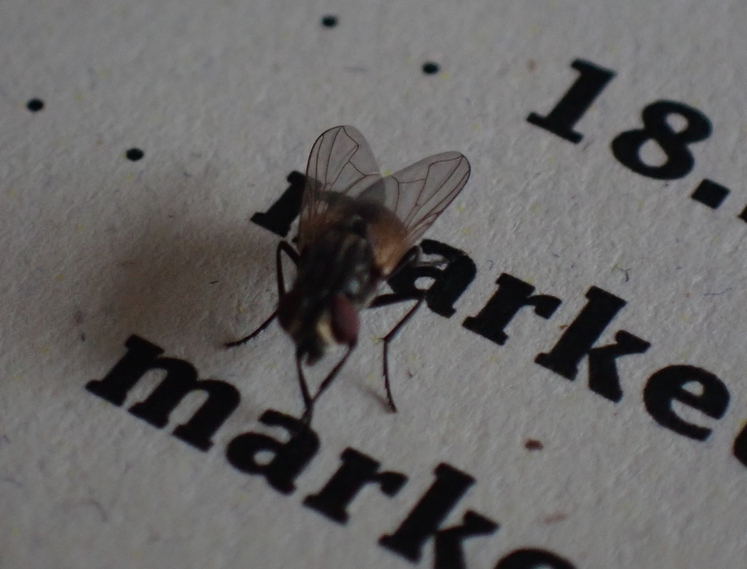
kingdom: Animalia
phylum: Arthropoda
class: Insecta
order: Diptera
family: Muscidae
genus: Musca
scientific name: Musca domestica
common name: House fly
